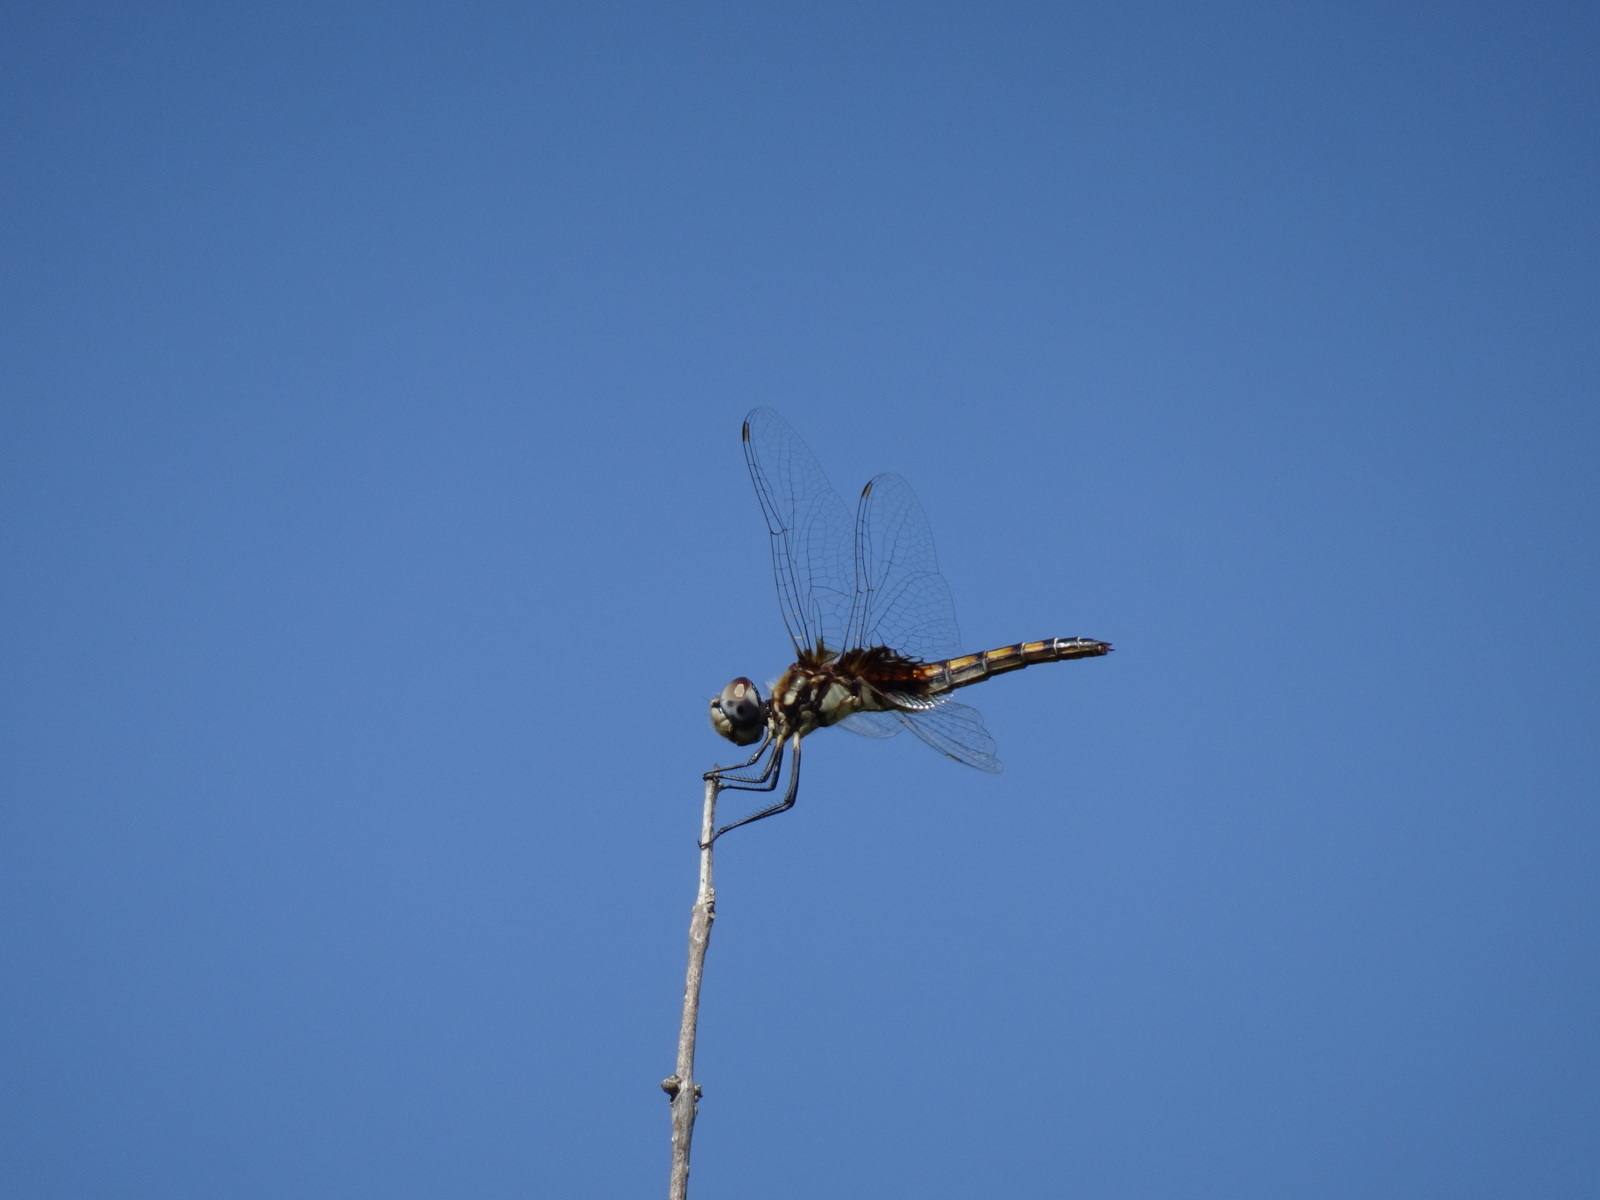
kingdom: Animalia
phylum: Arthropoda
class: Insecta
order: Odonata
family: Libellulidae
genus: Macrodiplax
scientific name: Macrodiplax balteata
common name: Marl pennant
